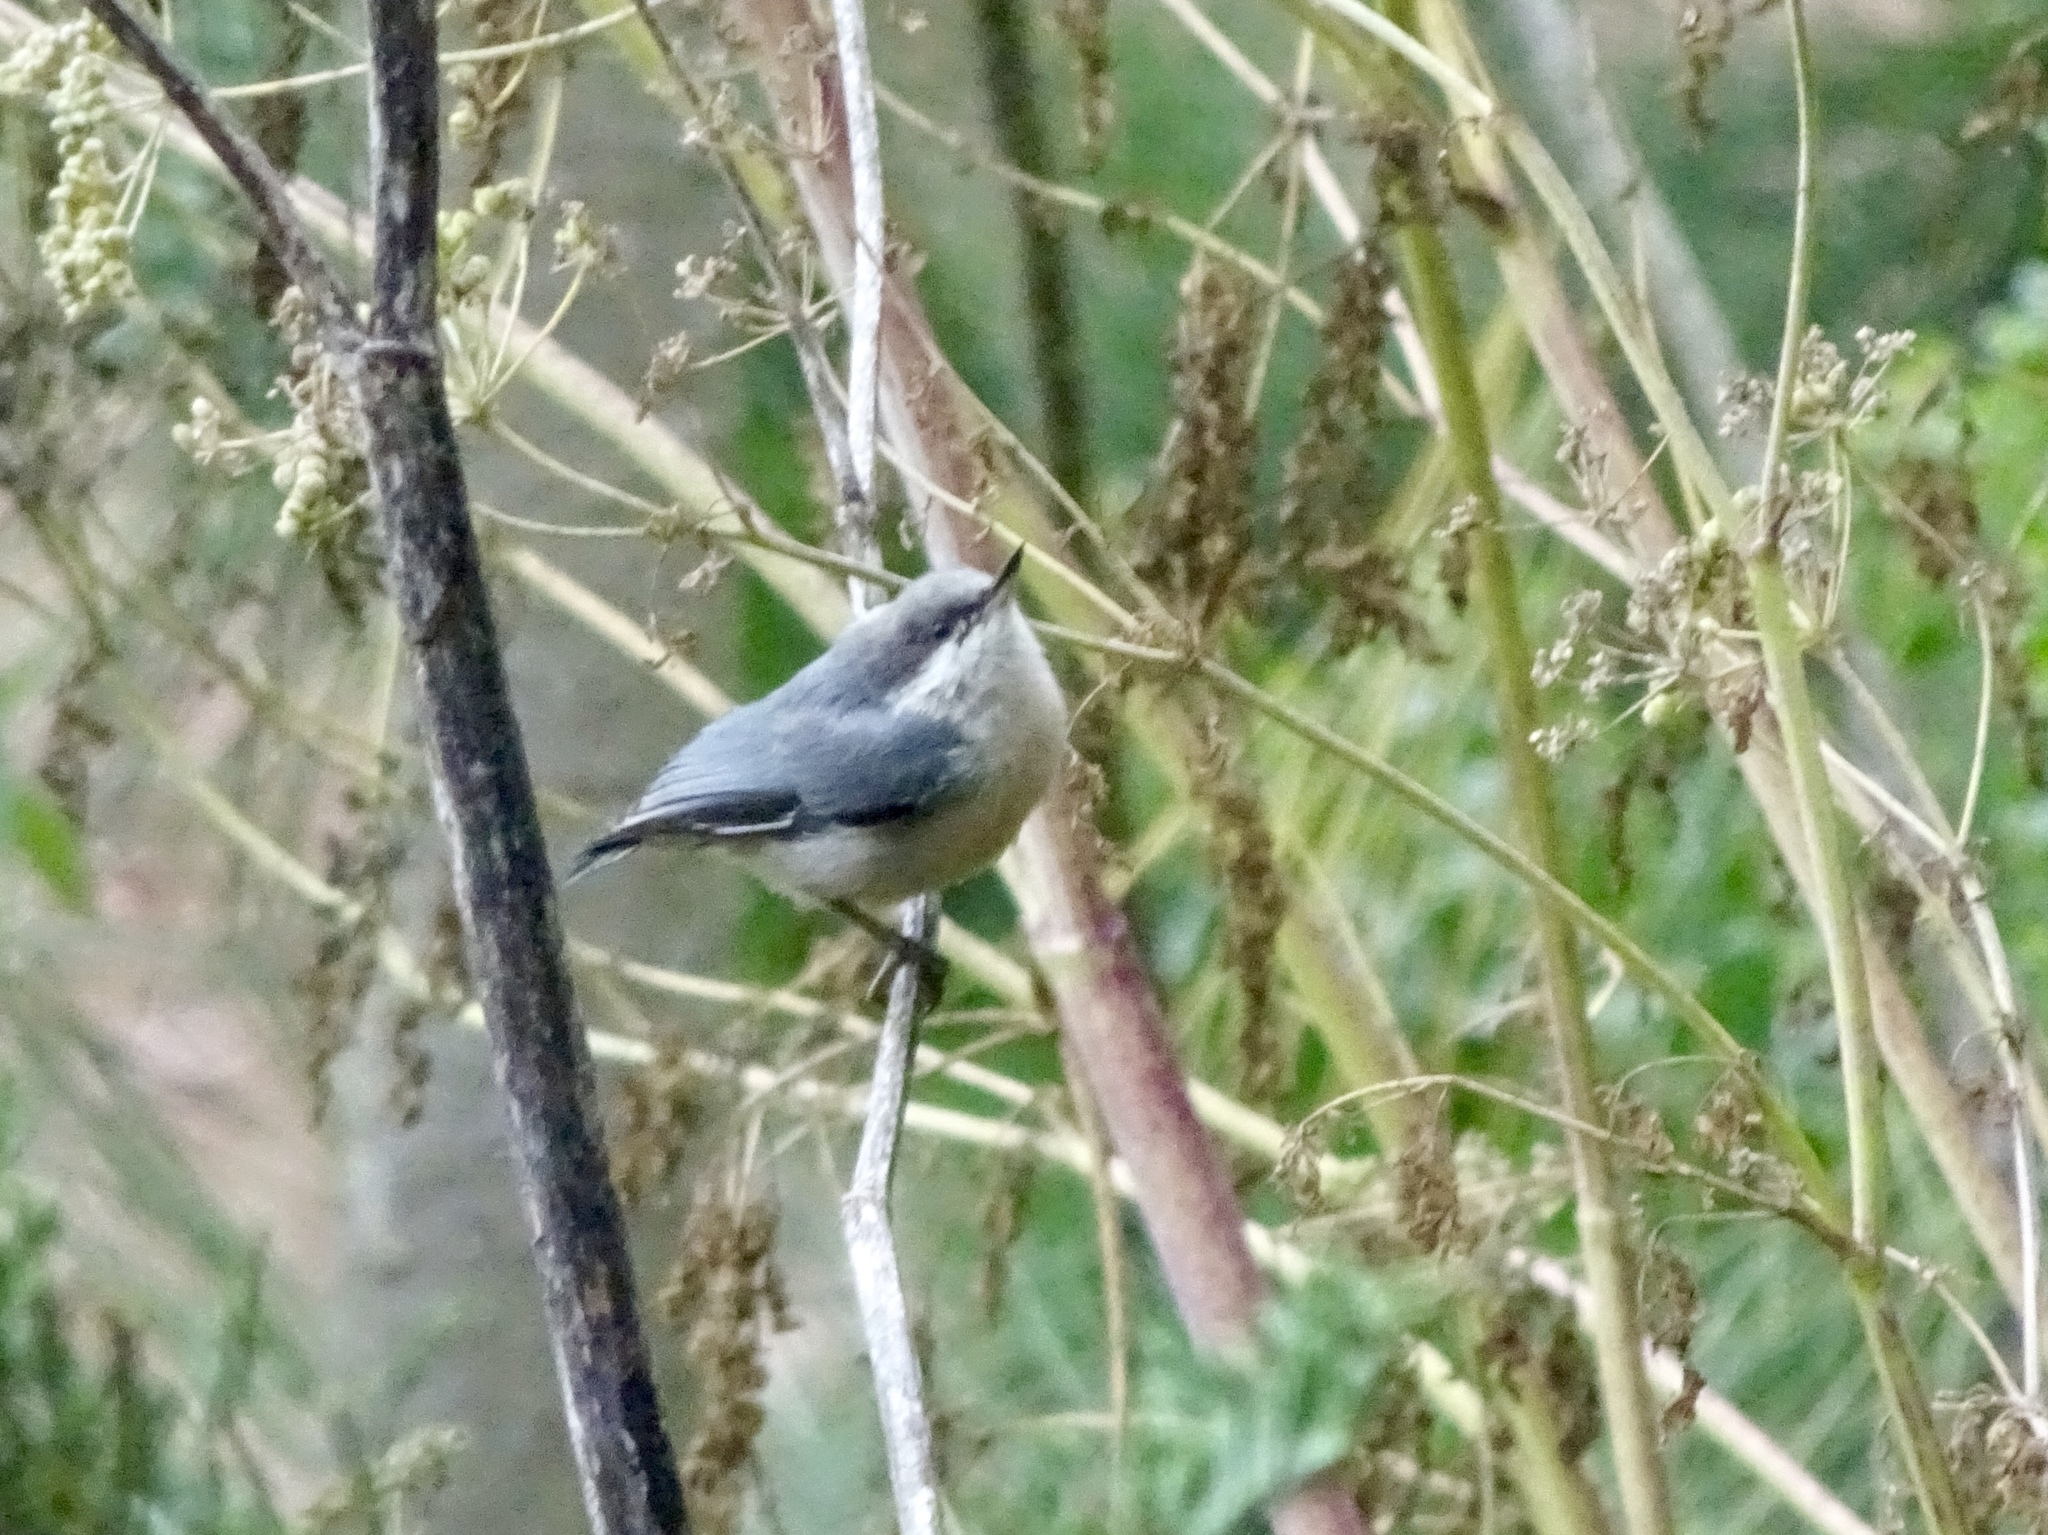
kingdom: Animalia
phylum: Chordata
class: Aves
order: Passeriformes
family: Sittidae
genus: Sitta
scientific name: Sitta pygmaea
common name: Pygmy nuthatch
